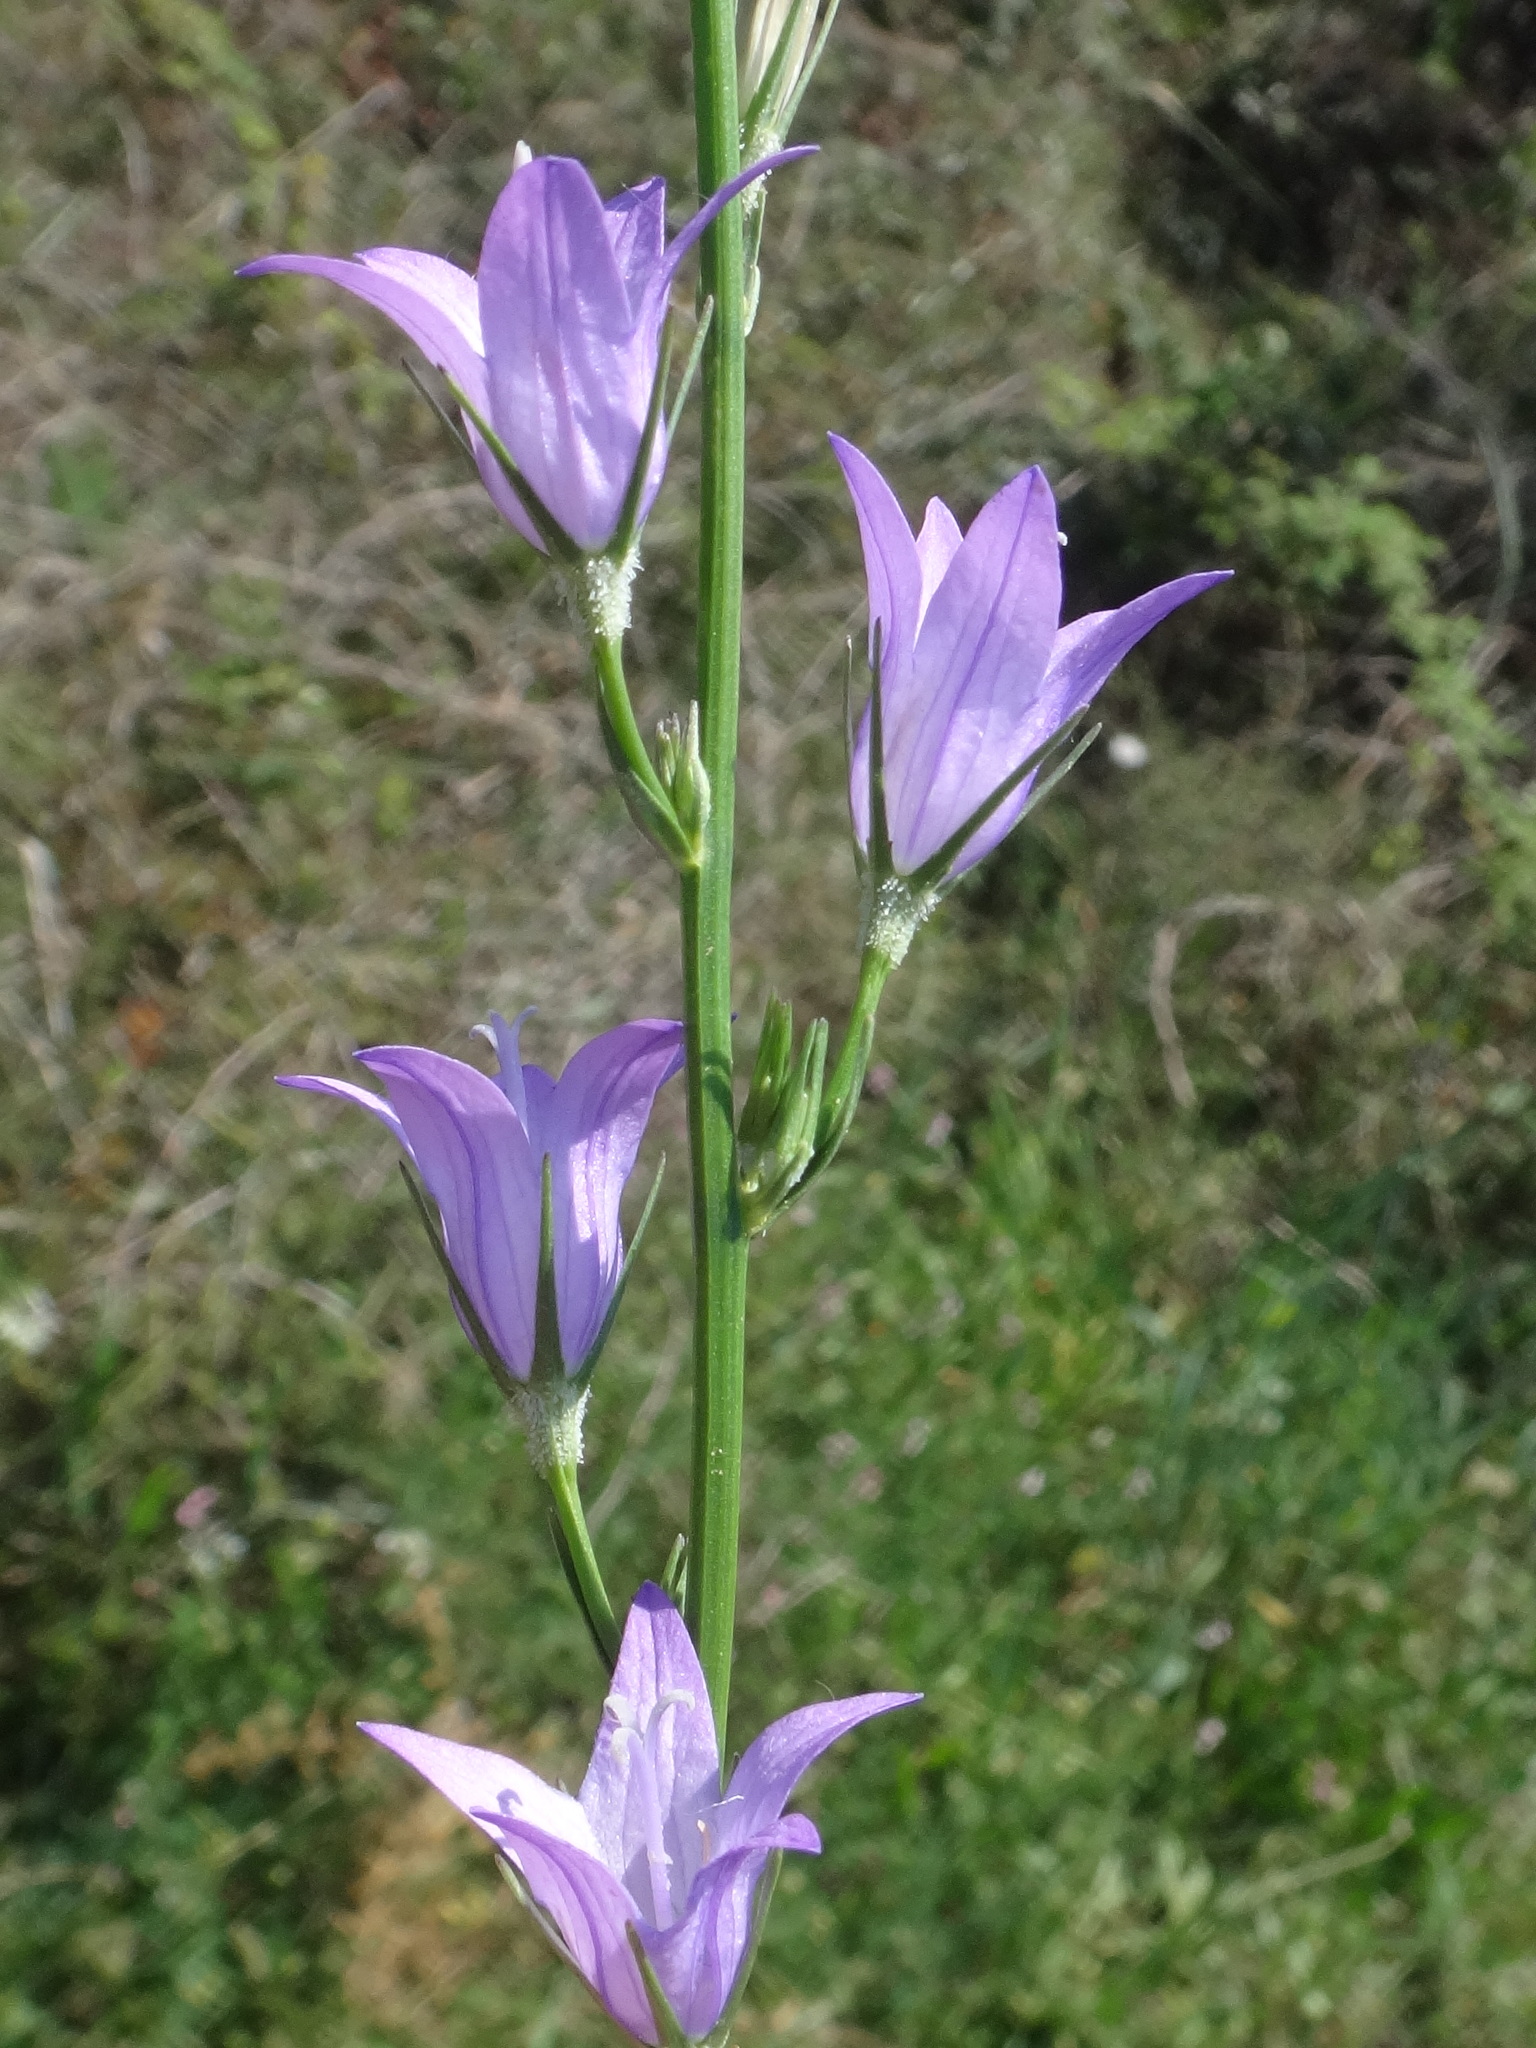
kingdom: Plantae
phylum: Tracheophyta
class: Magnoliopsida
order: Asterales
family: Campanulaceae
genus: Campanula
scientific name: Campanula rapunculus
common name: Rampion bellflower
